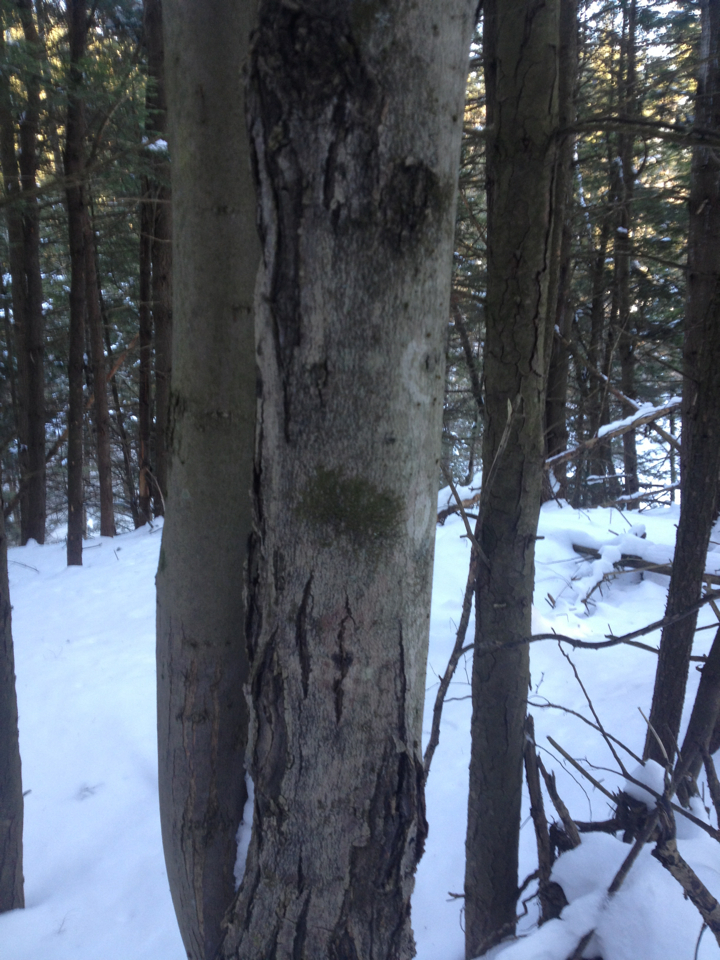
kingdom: Plantae
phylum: Tracheophyta
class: Magnoliopsida
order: Sapindales
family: Sapindaceae
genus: Acer
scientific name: Acer rubrum
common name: Red maple
